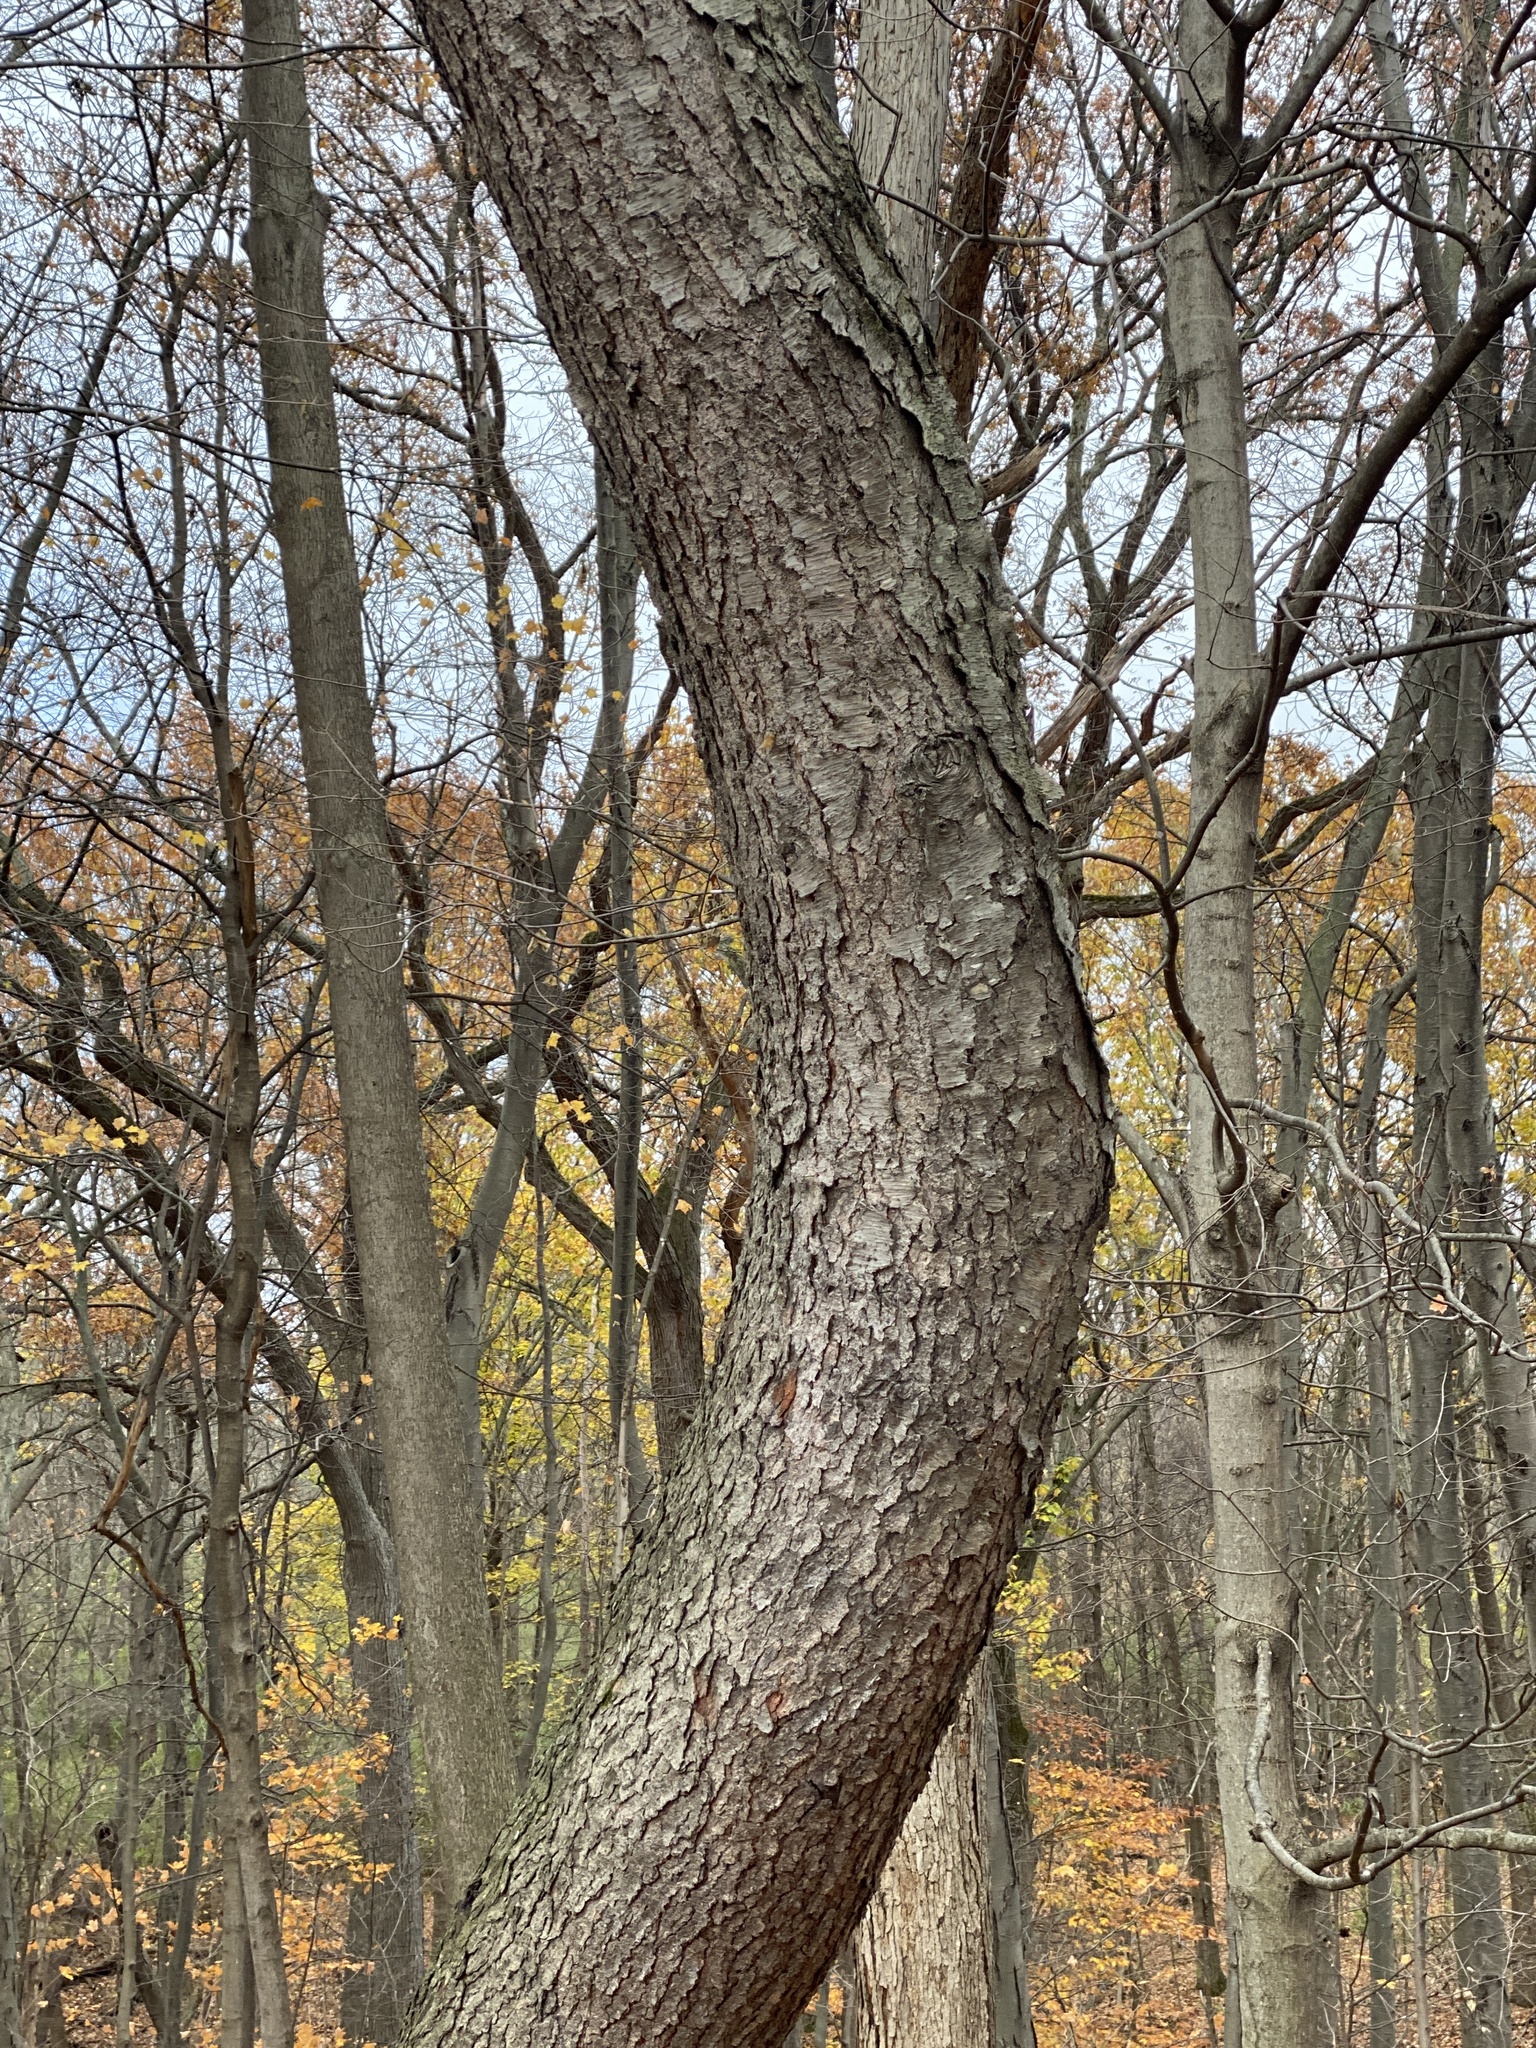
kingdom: Plantae
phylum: Tracheophyta
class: Magnoliopsida
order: Rosales
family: Rosaceae
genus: Prunus
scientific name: Prunus serotina
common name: Black cherry
